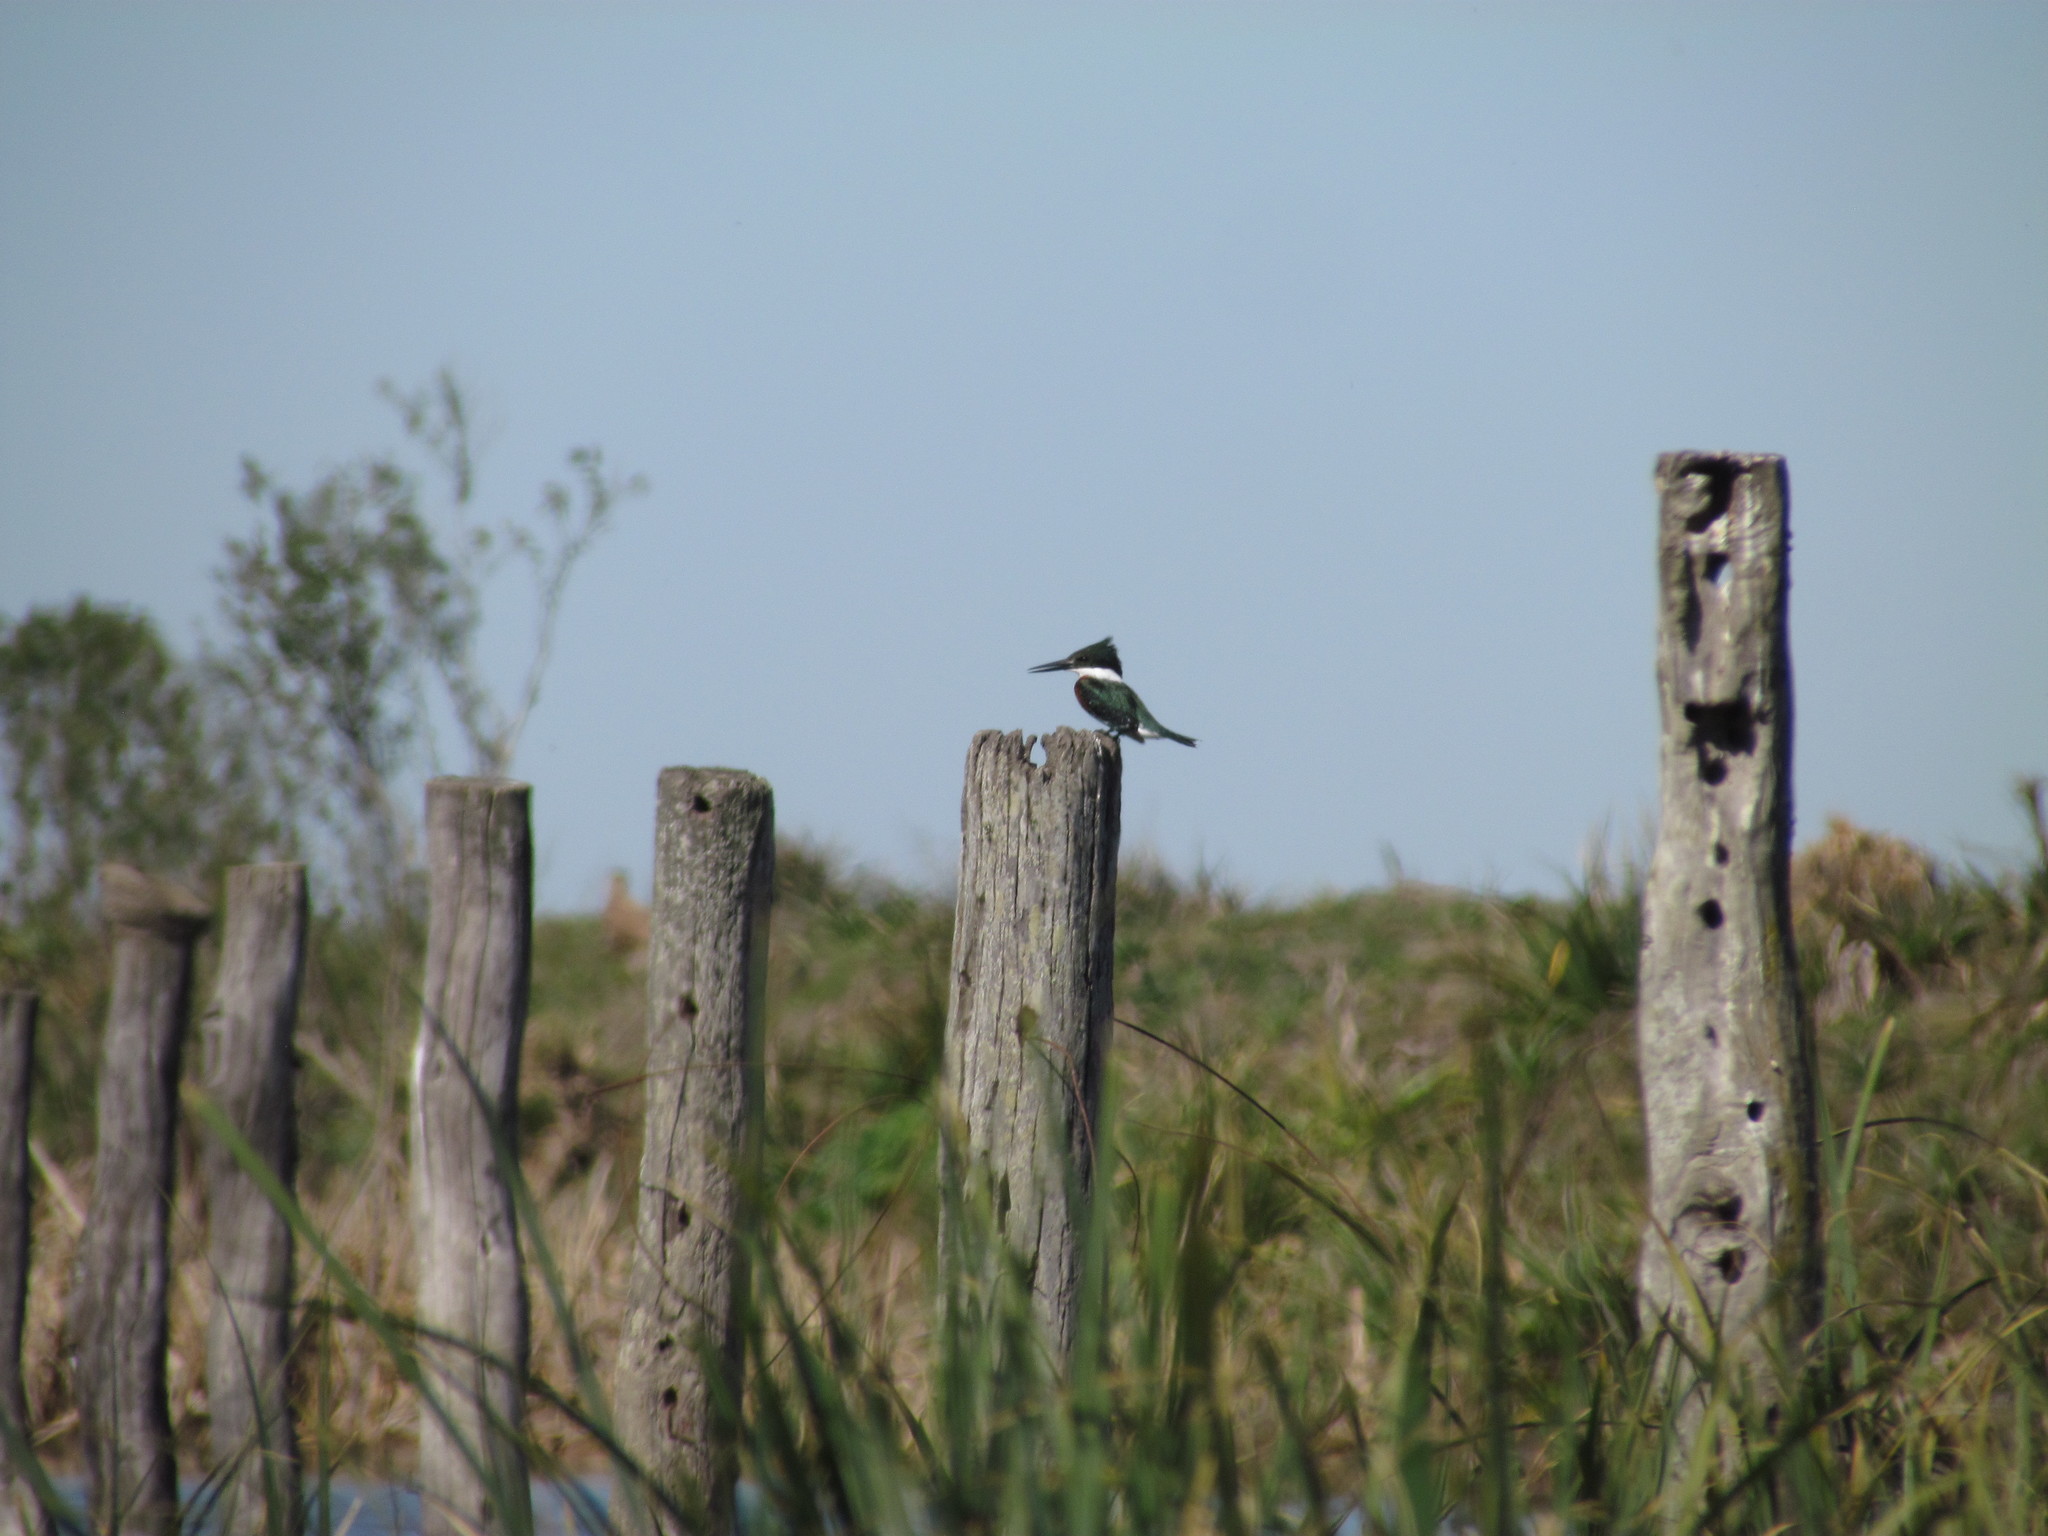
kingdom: Animalia
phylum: Chordata
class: Aves
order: Coraciiformes
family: Alcedinidae
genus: Chloroceryle
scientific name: Chloroceryle americana
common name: Green kingfisher
